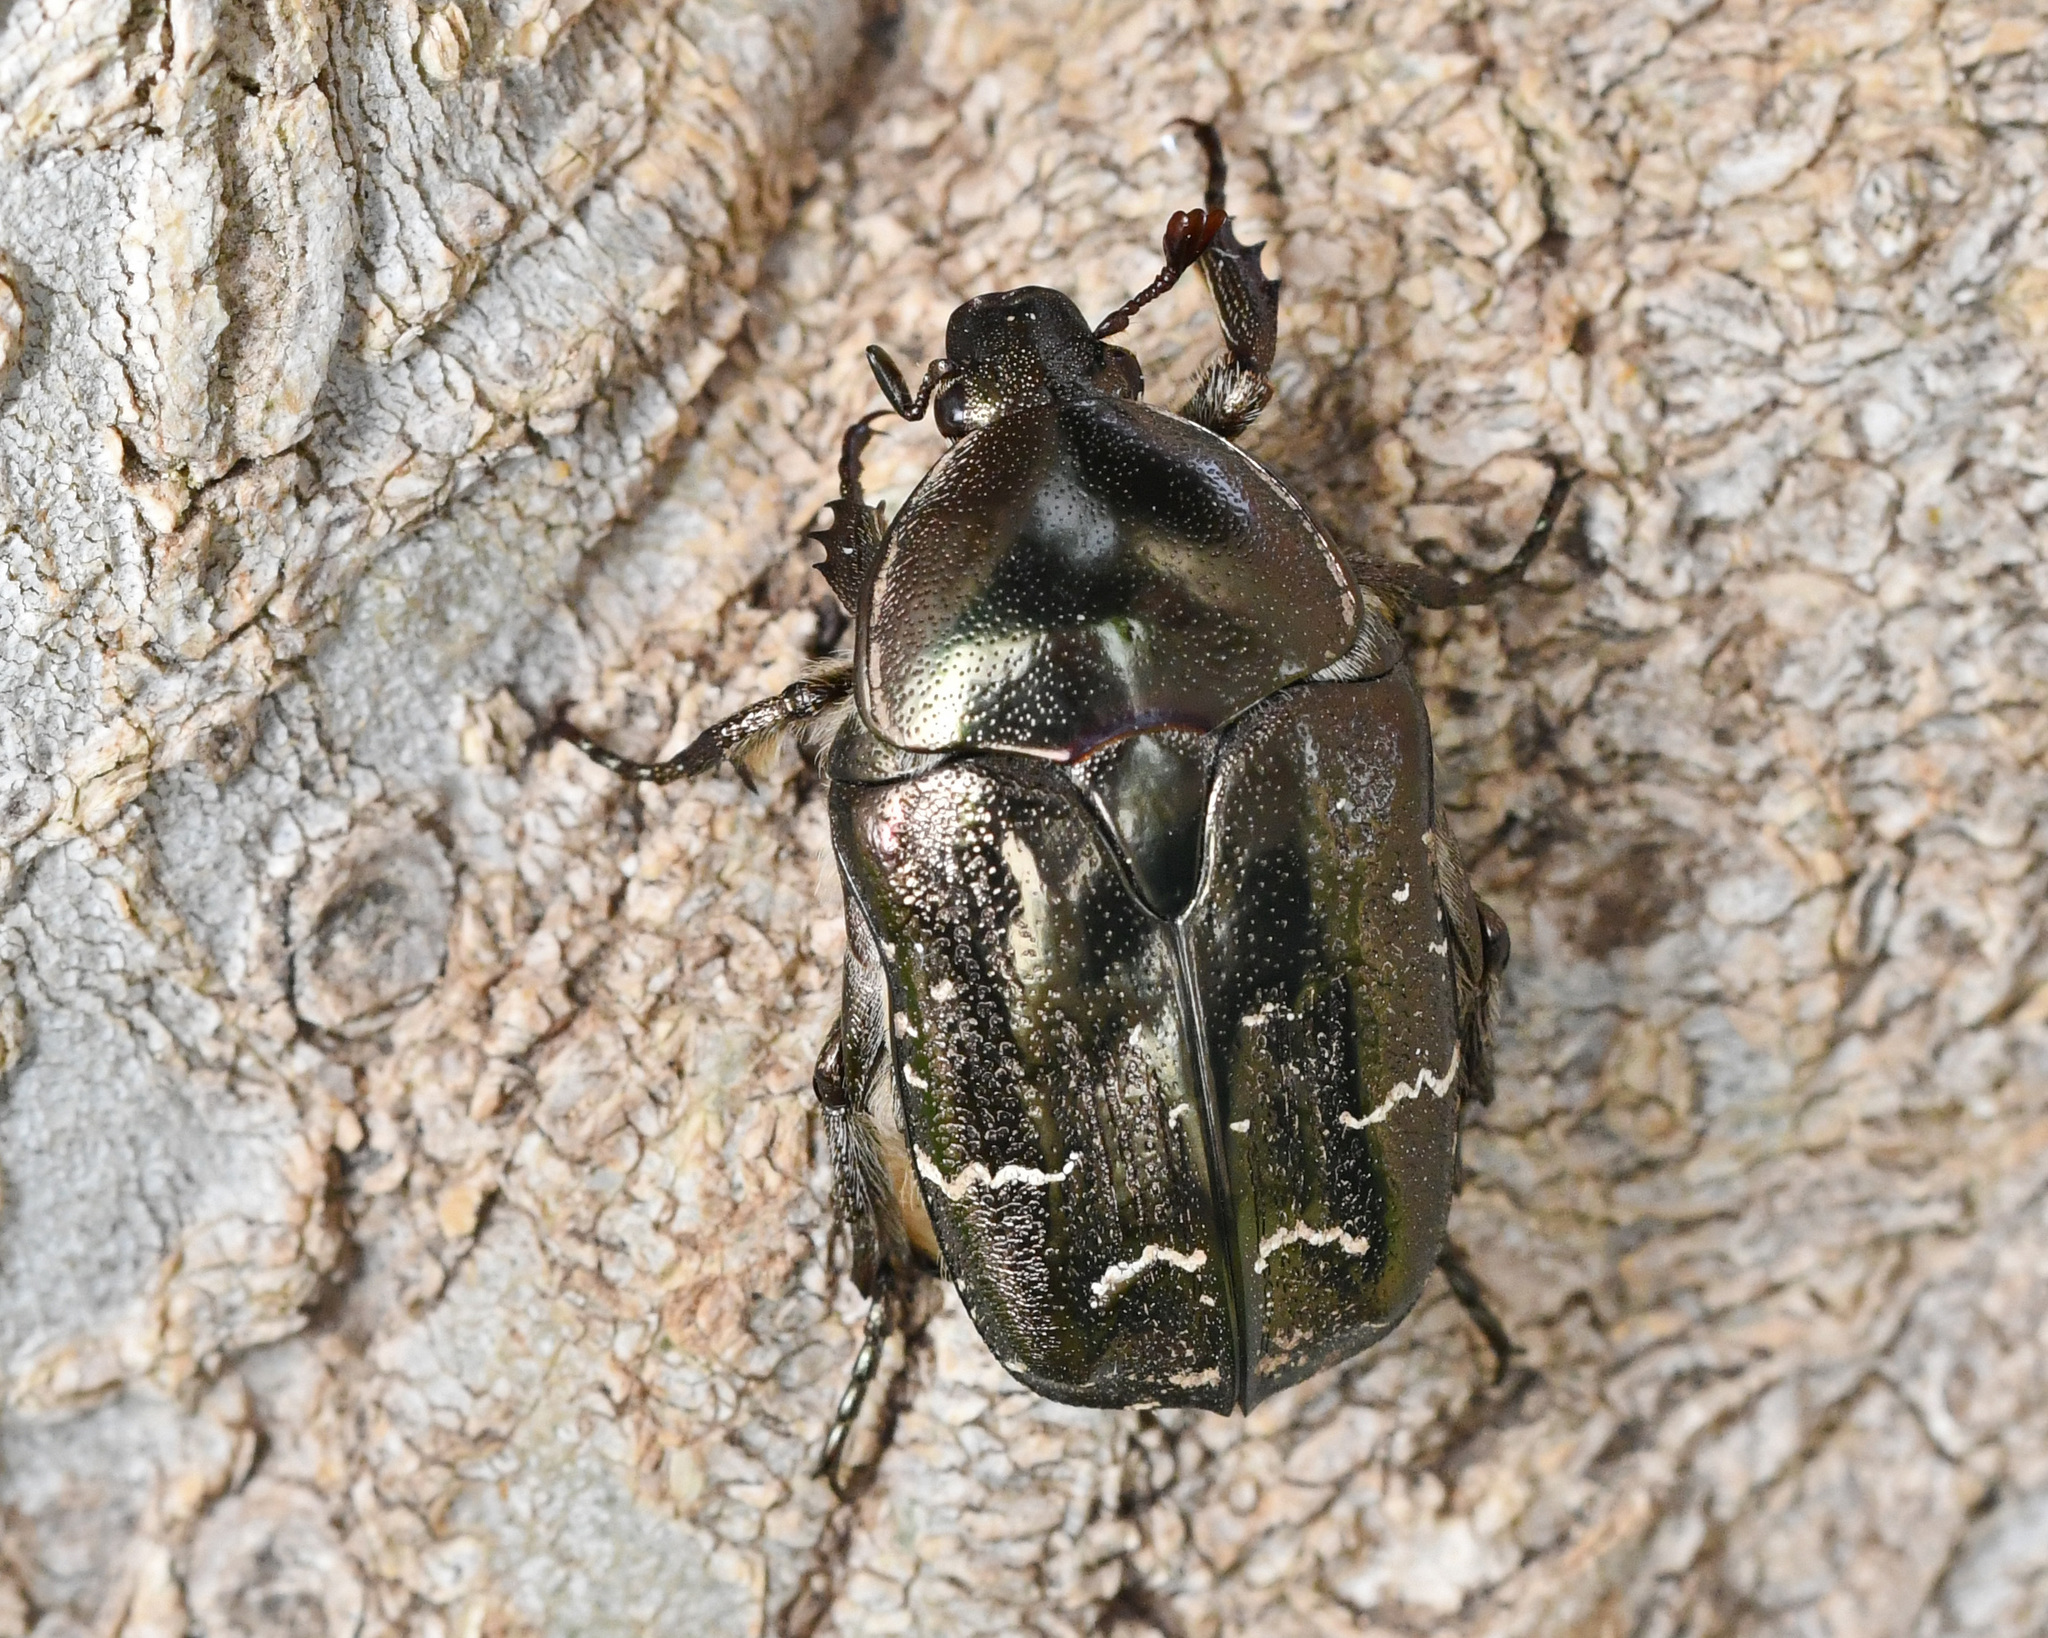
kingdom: Animalia
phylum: Arthropoda
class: Insecta
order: Coleoptera
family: Scarabaeidae
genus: Protaetia
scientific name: Protaetia ikonomovi
